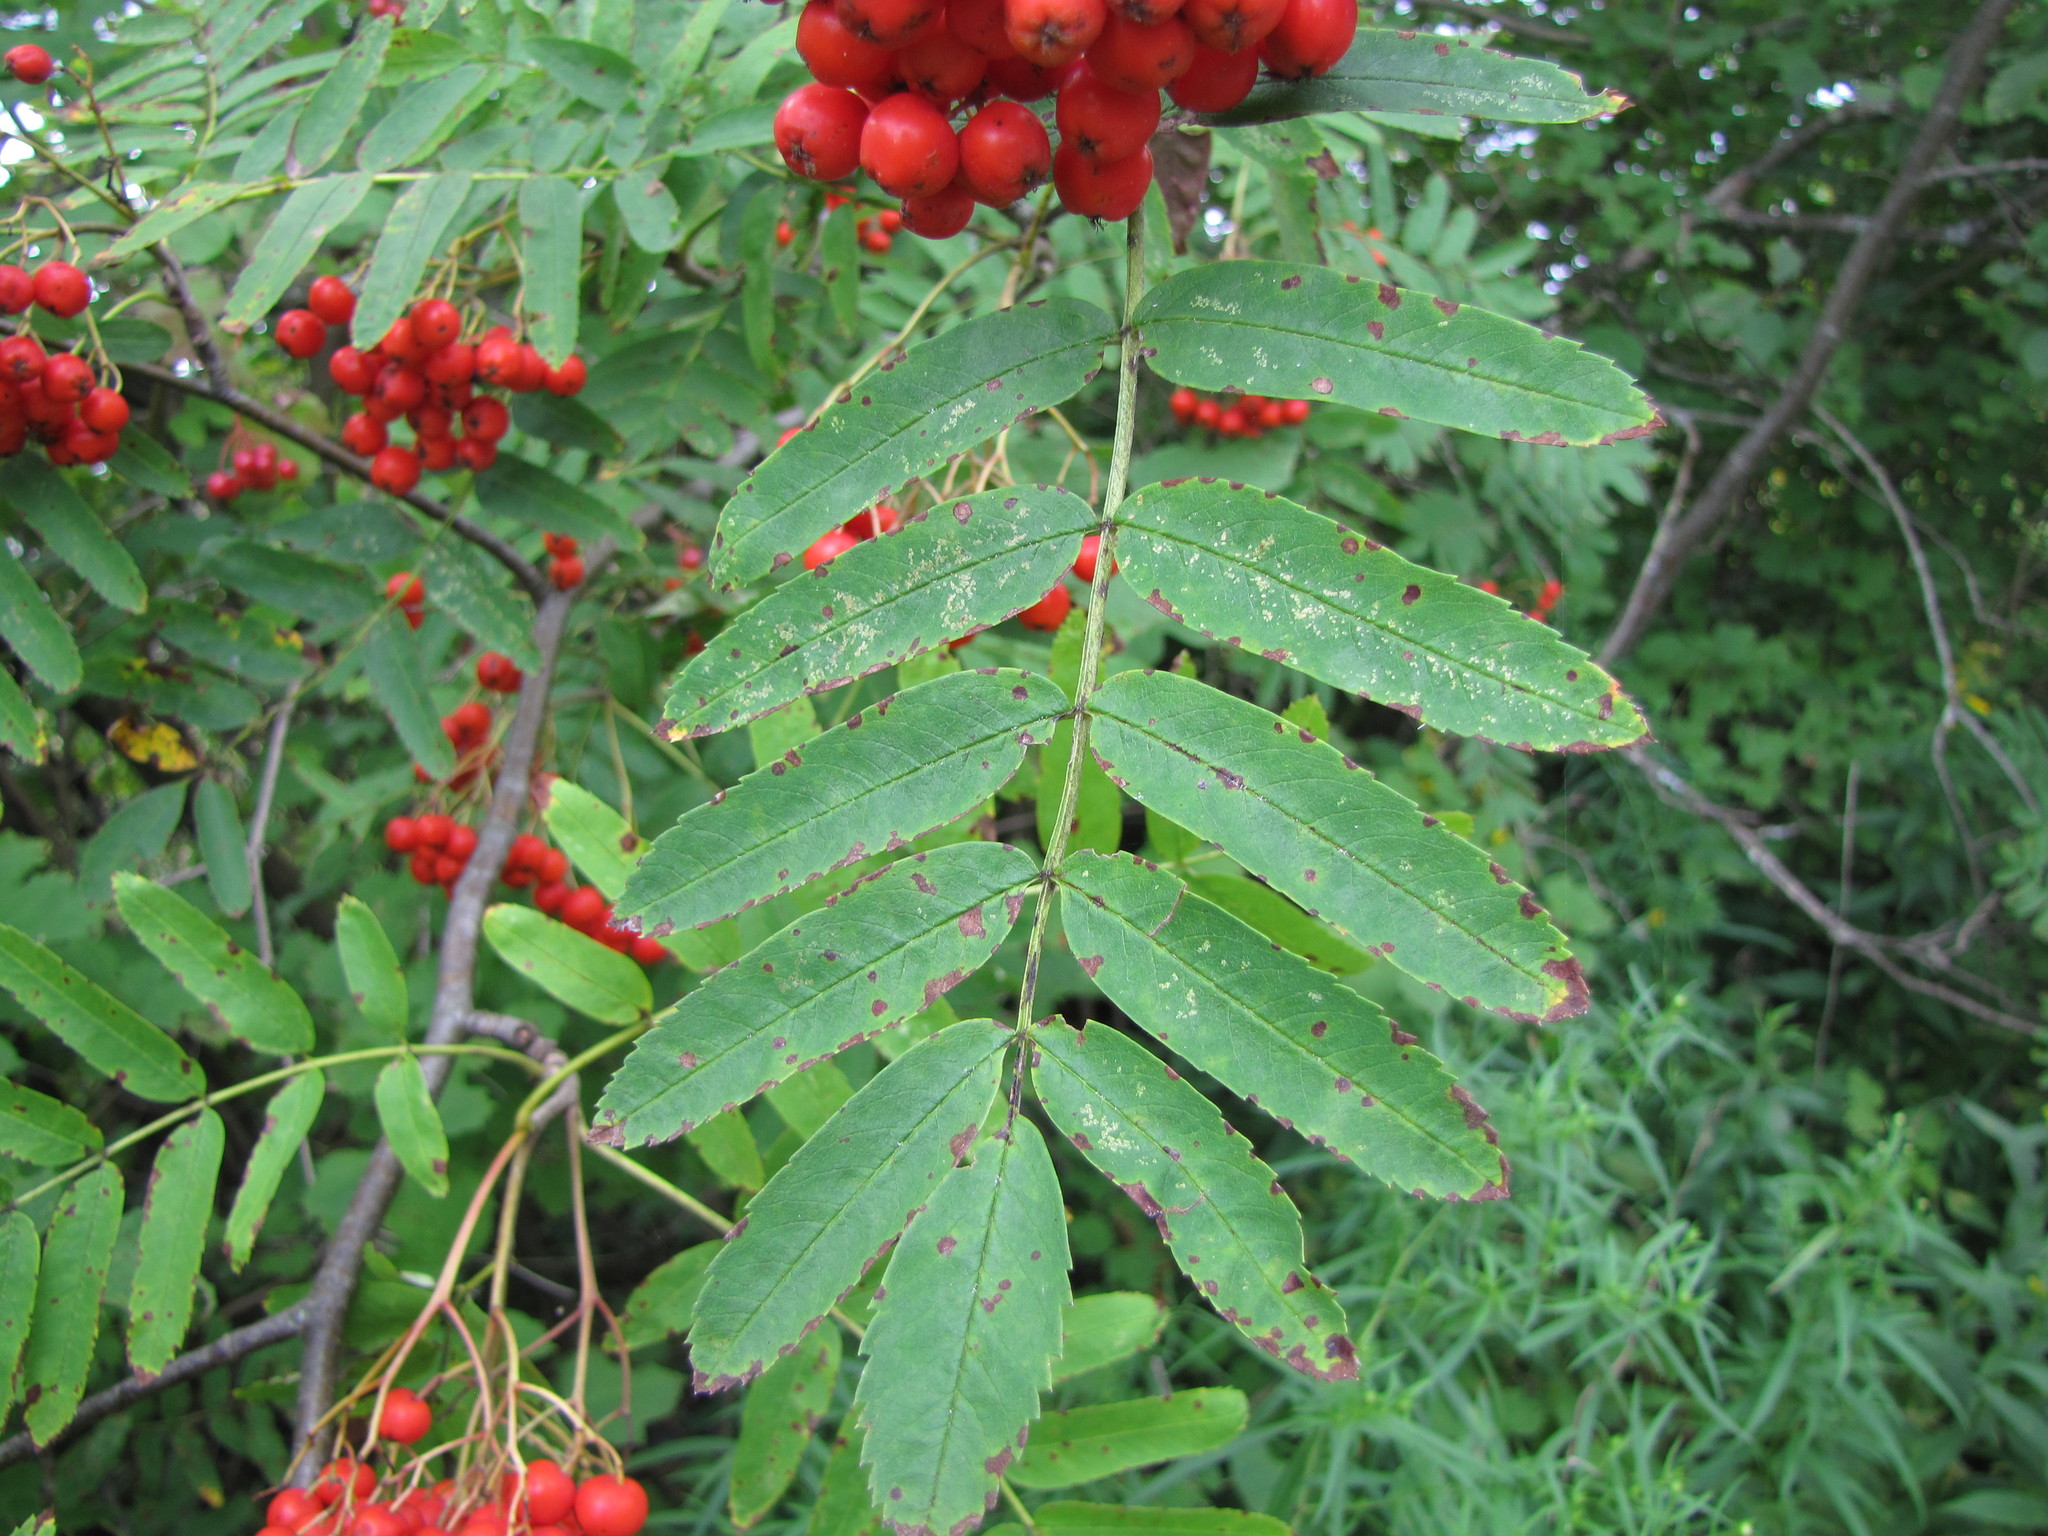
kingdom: Plantae
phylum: Tracheophyta
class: Magnoliopsida
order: Rosales
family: Rosaceae
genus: Sorbus
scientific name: Sorbus americana
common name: American mountain-ash
